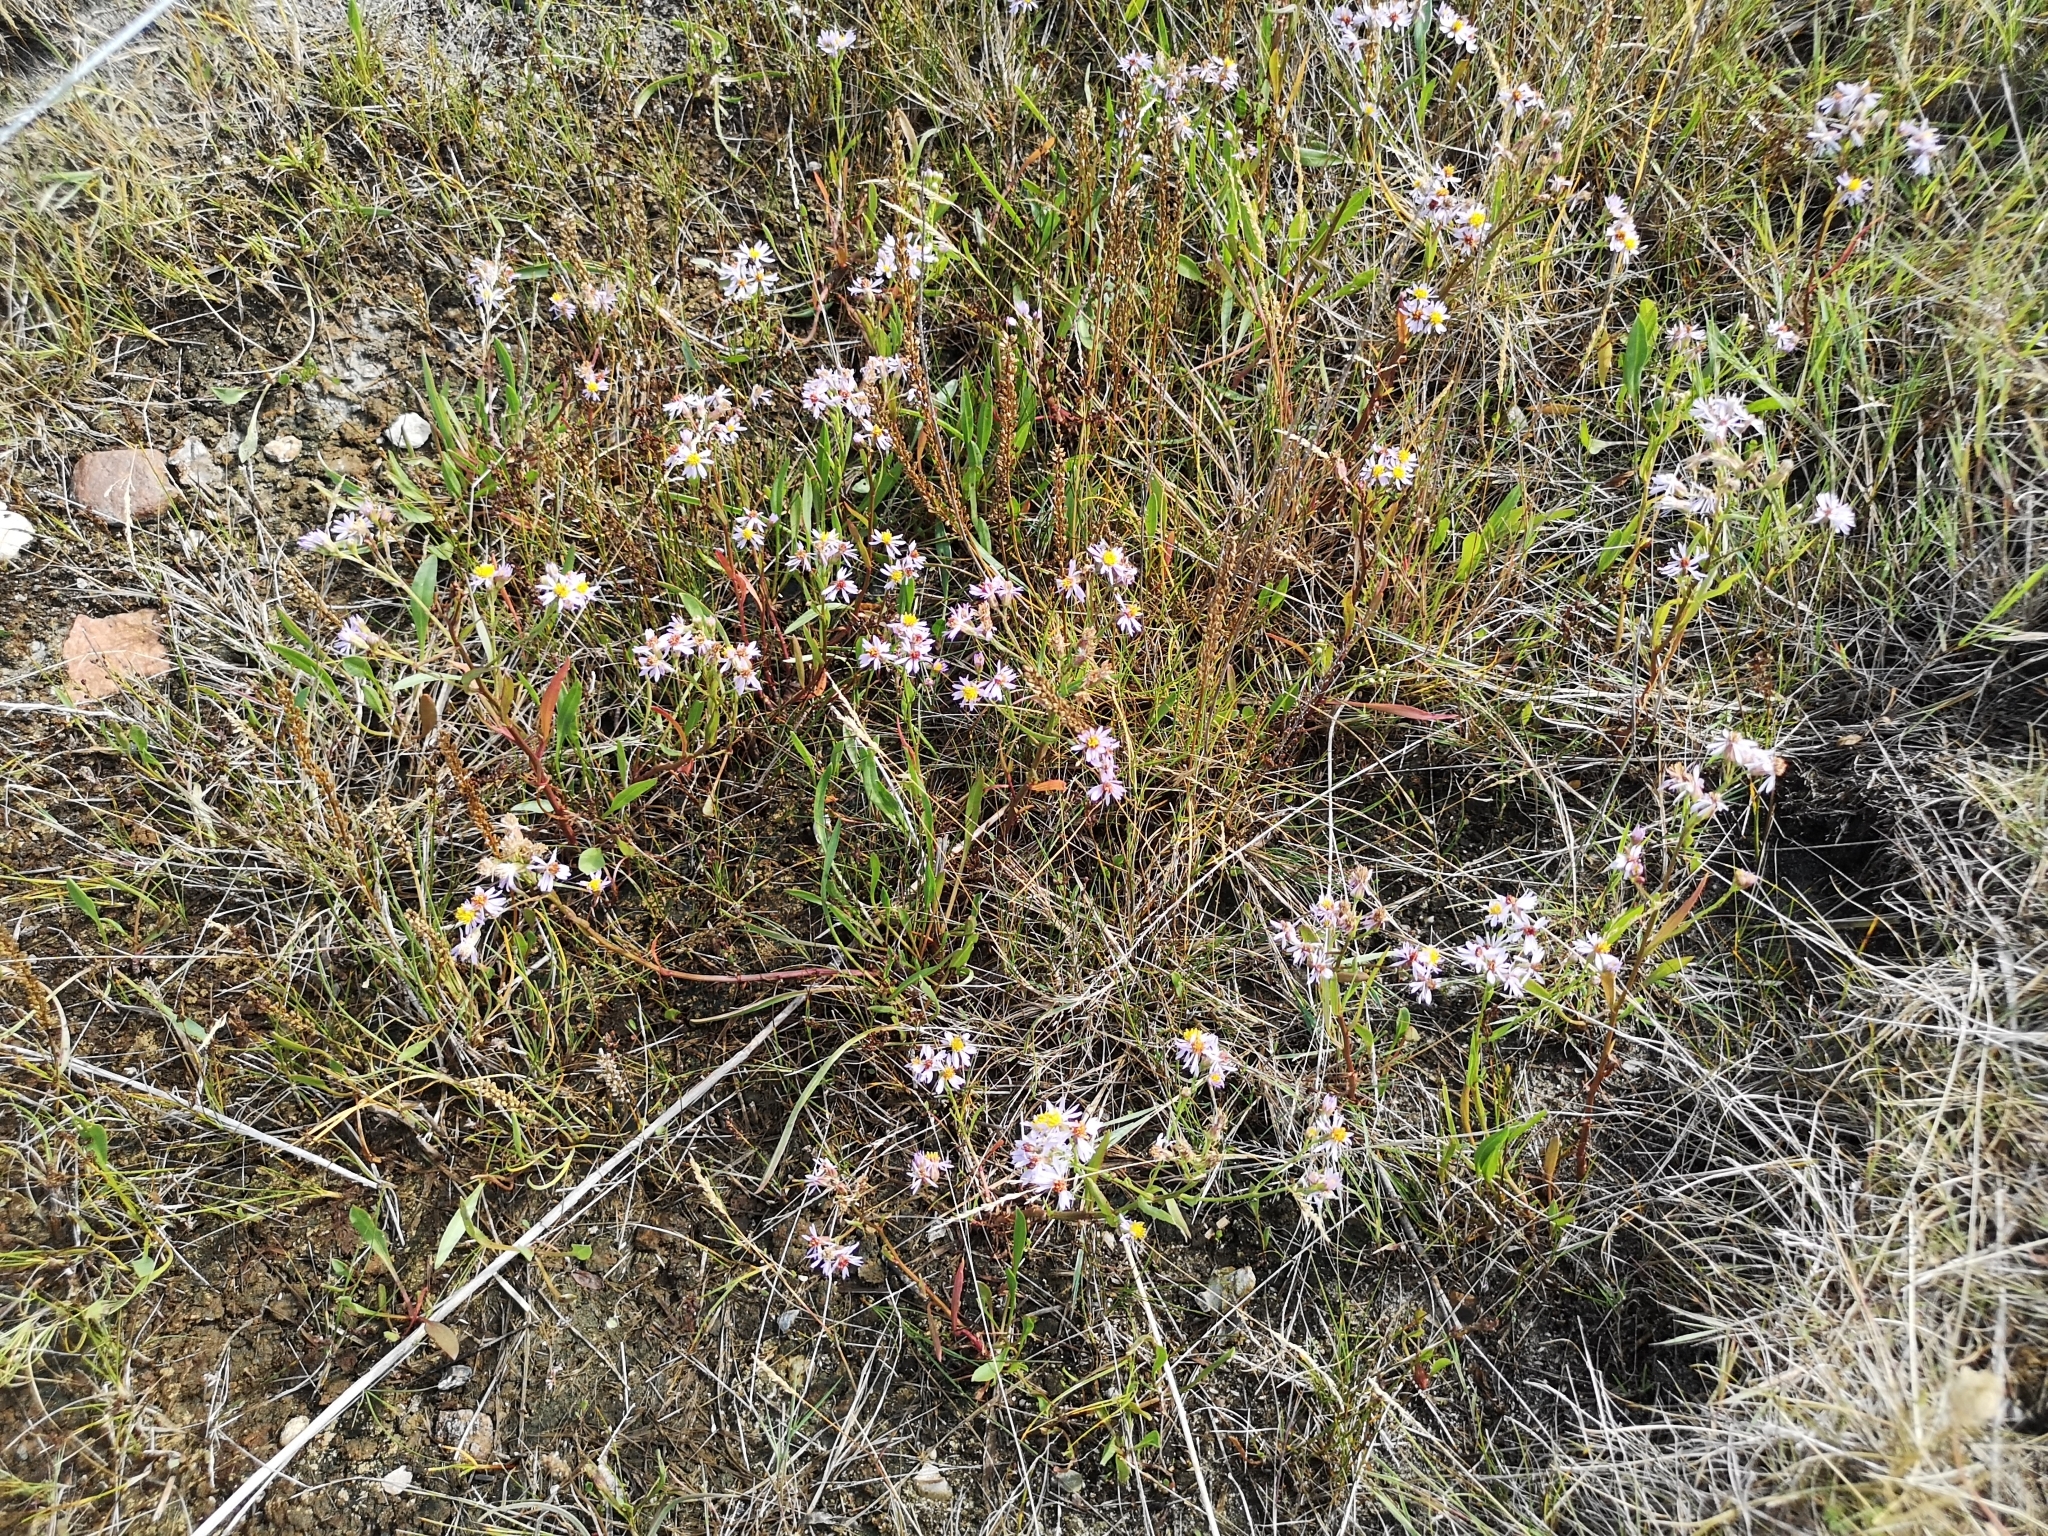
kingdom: Plantae
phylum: Tracheophyta
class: Magnoliopsida
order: Asterales
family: Asteraceae
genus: Tripolium
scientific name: Tripolium pannonicum
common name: Sea aster
